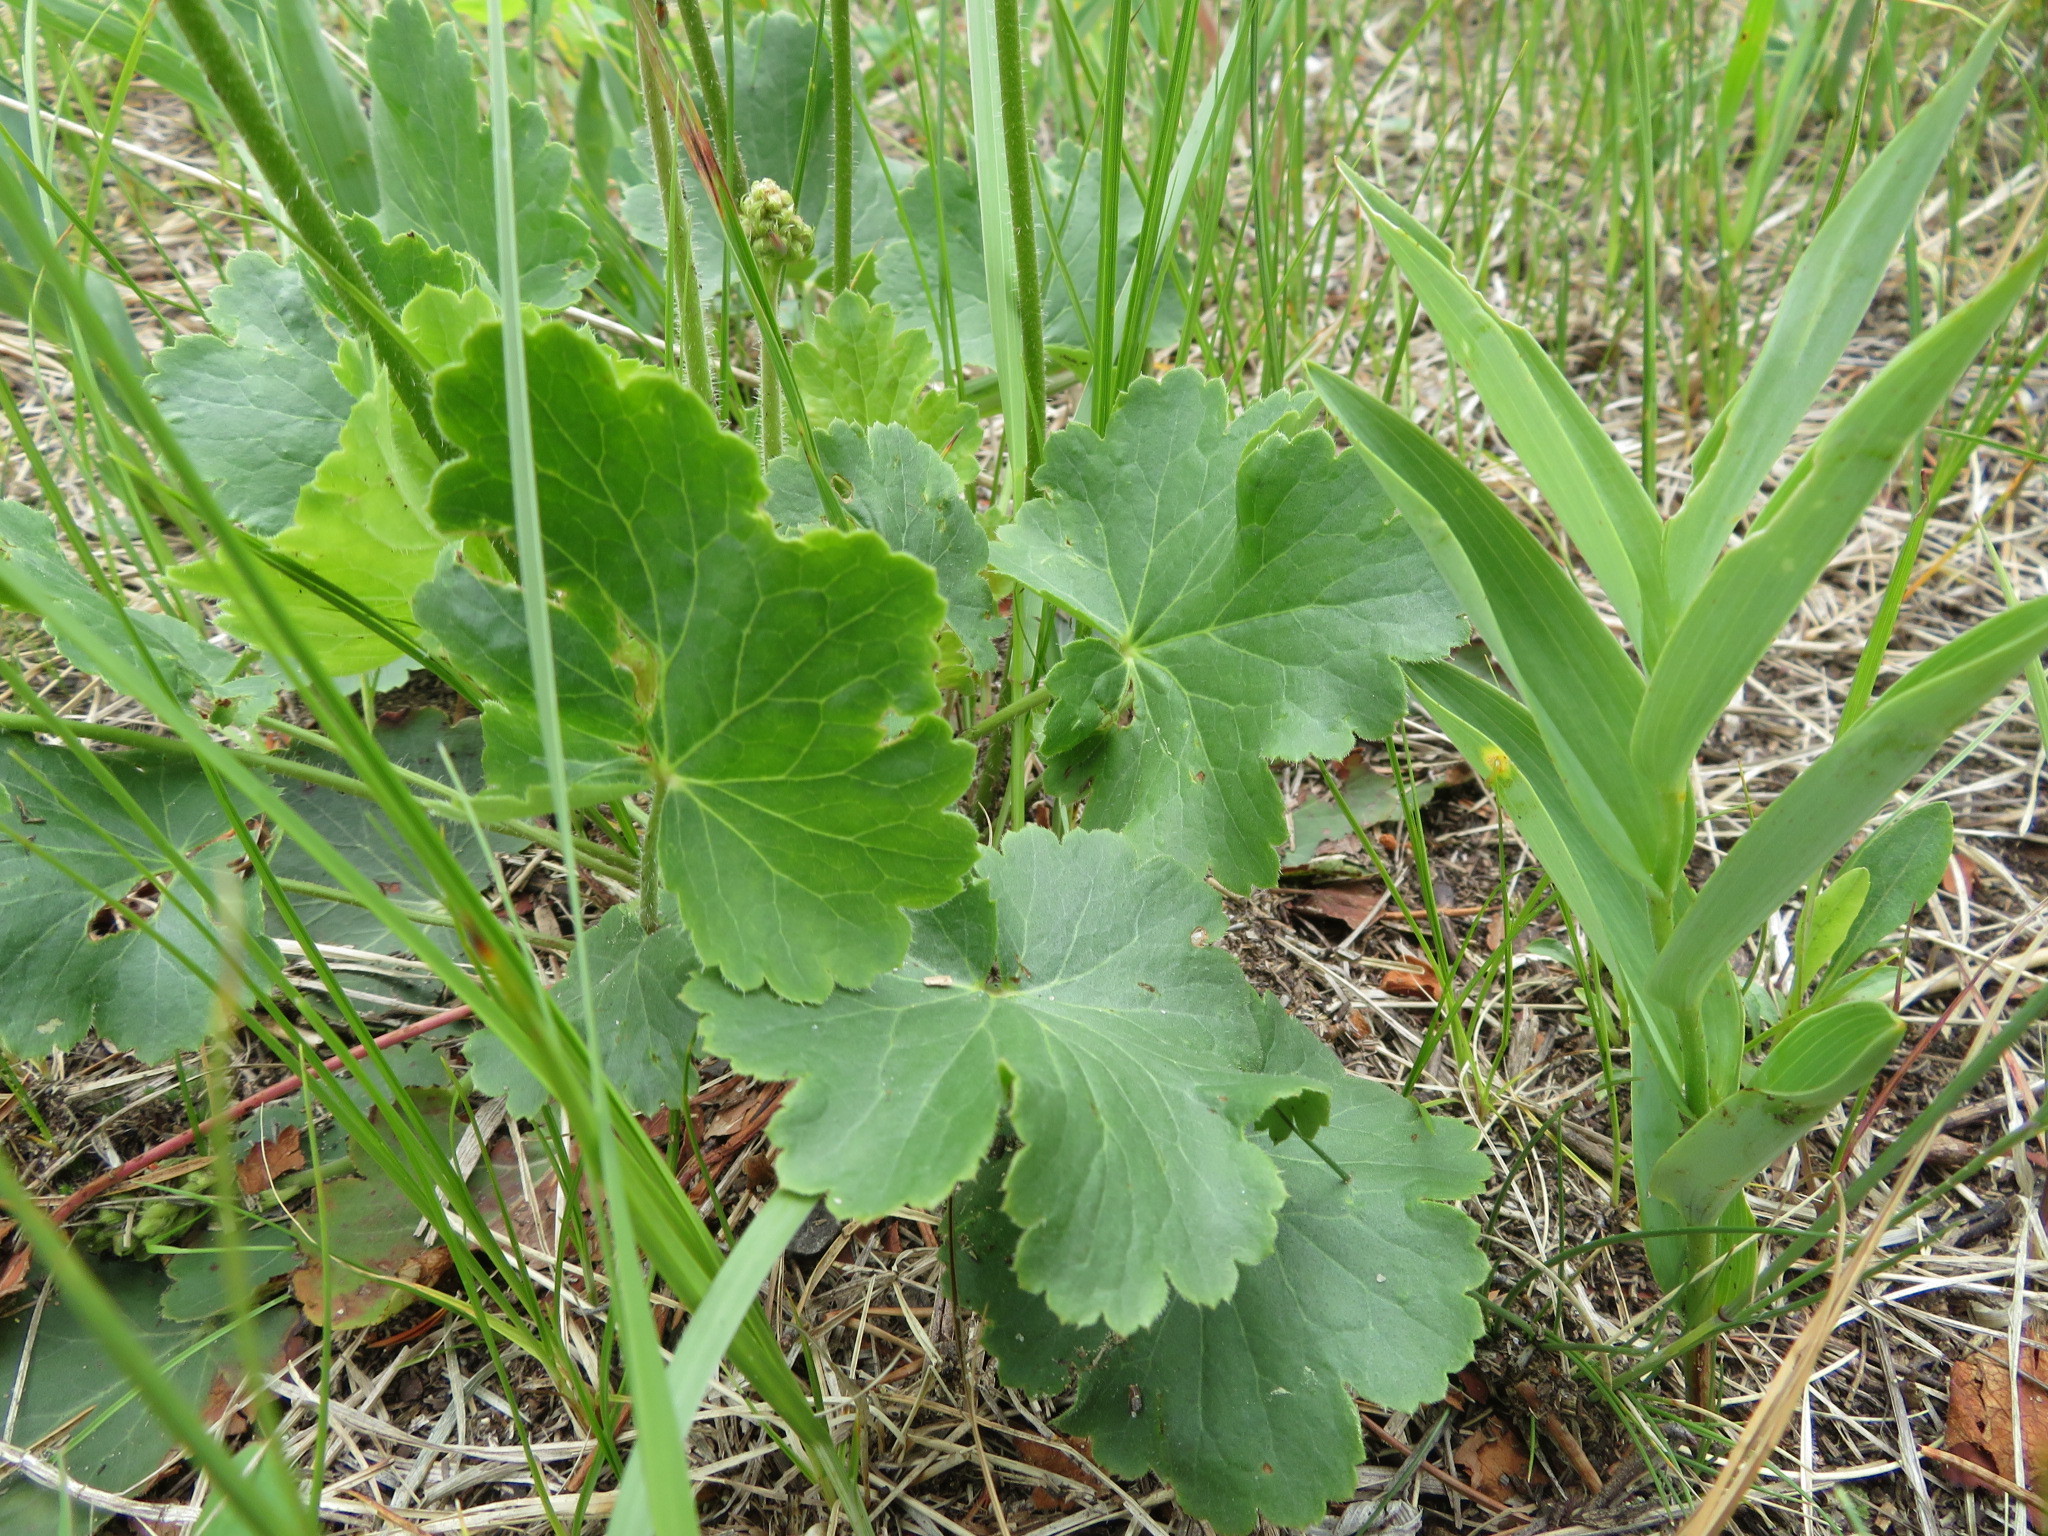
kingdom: Plantae
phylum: Tracheophyta
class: Magnoliopsida
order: Saxifragales
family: Saxifragaceae
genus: Heuchera
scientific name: Heuchera richardsonii
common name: Richardson's alumroot
